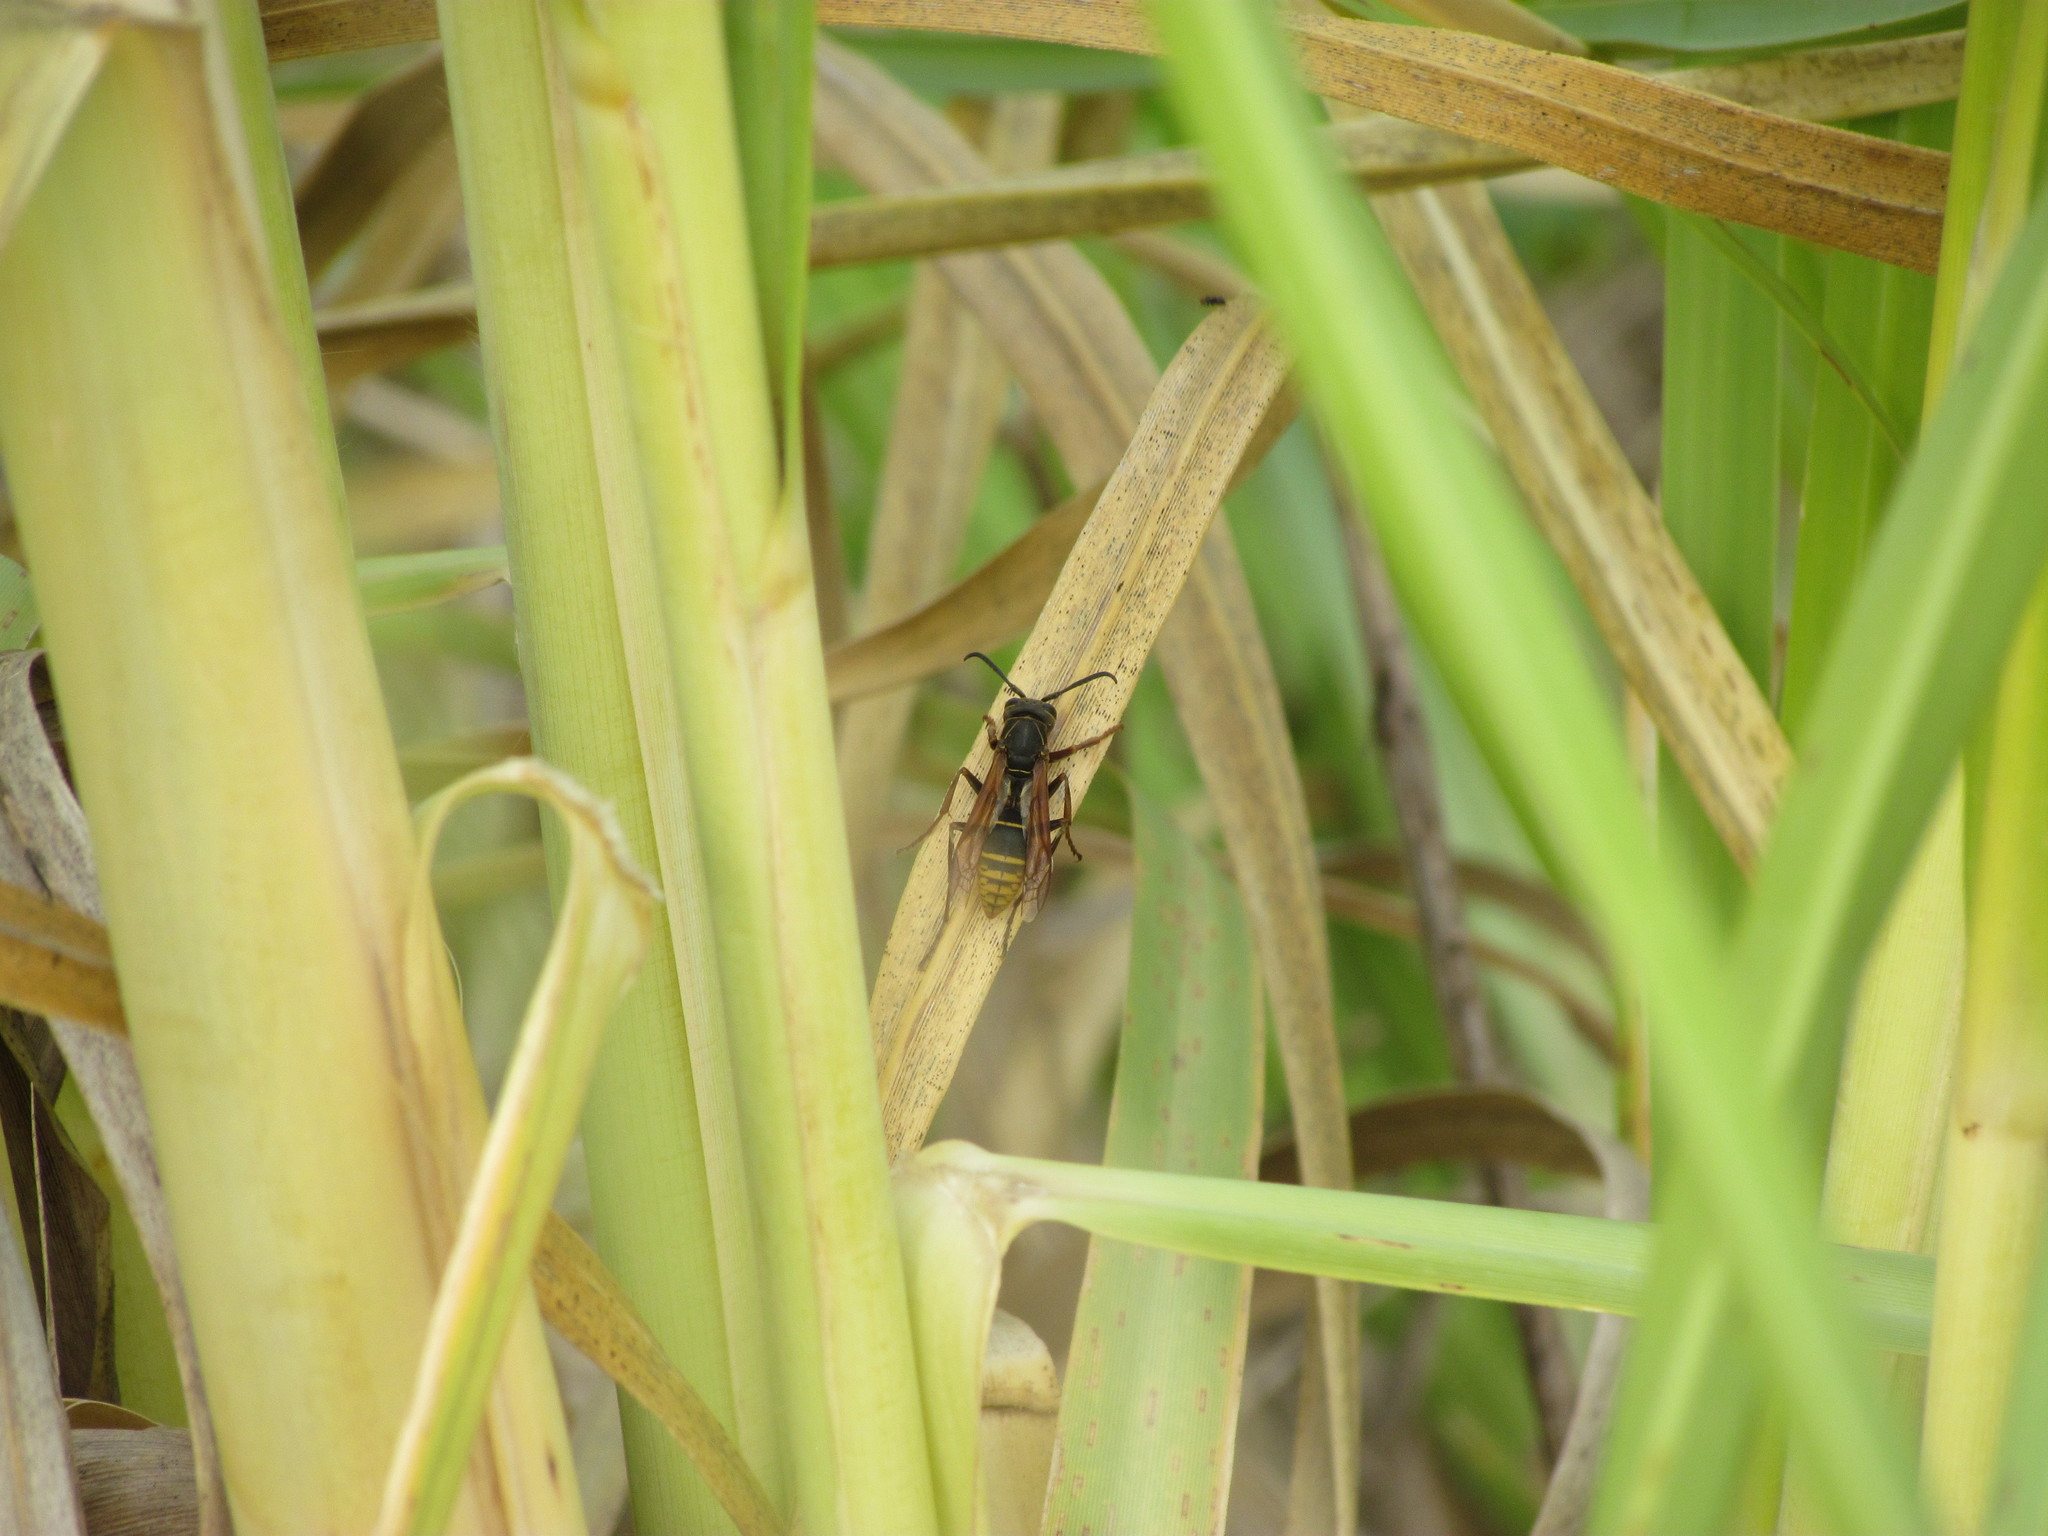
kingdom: Animalia
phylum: Arthropoda
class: Insecta
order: Hymenoptera
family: Eumenidae
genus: Polistes
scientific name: Polistes cinerascens
